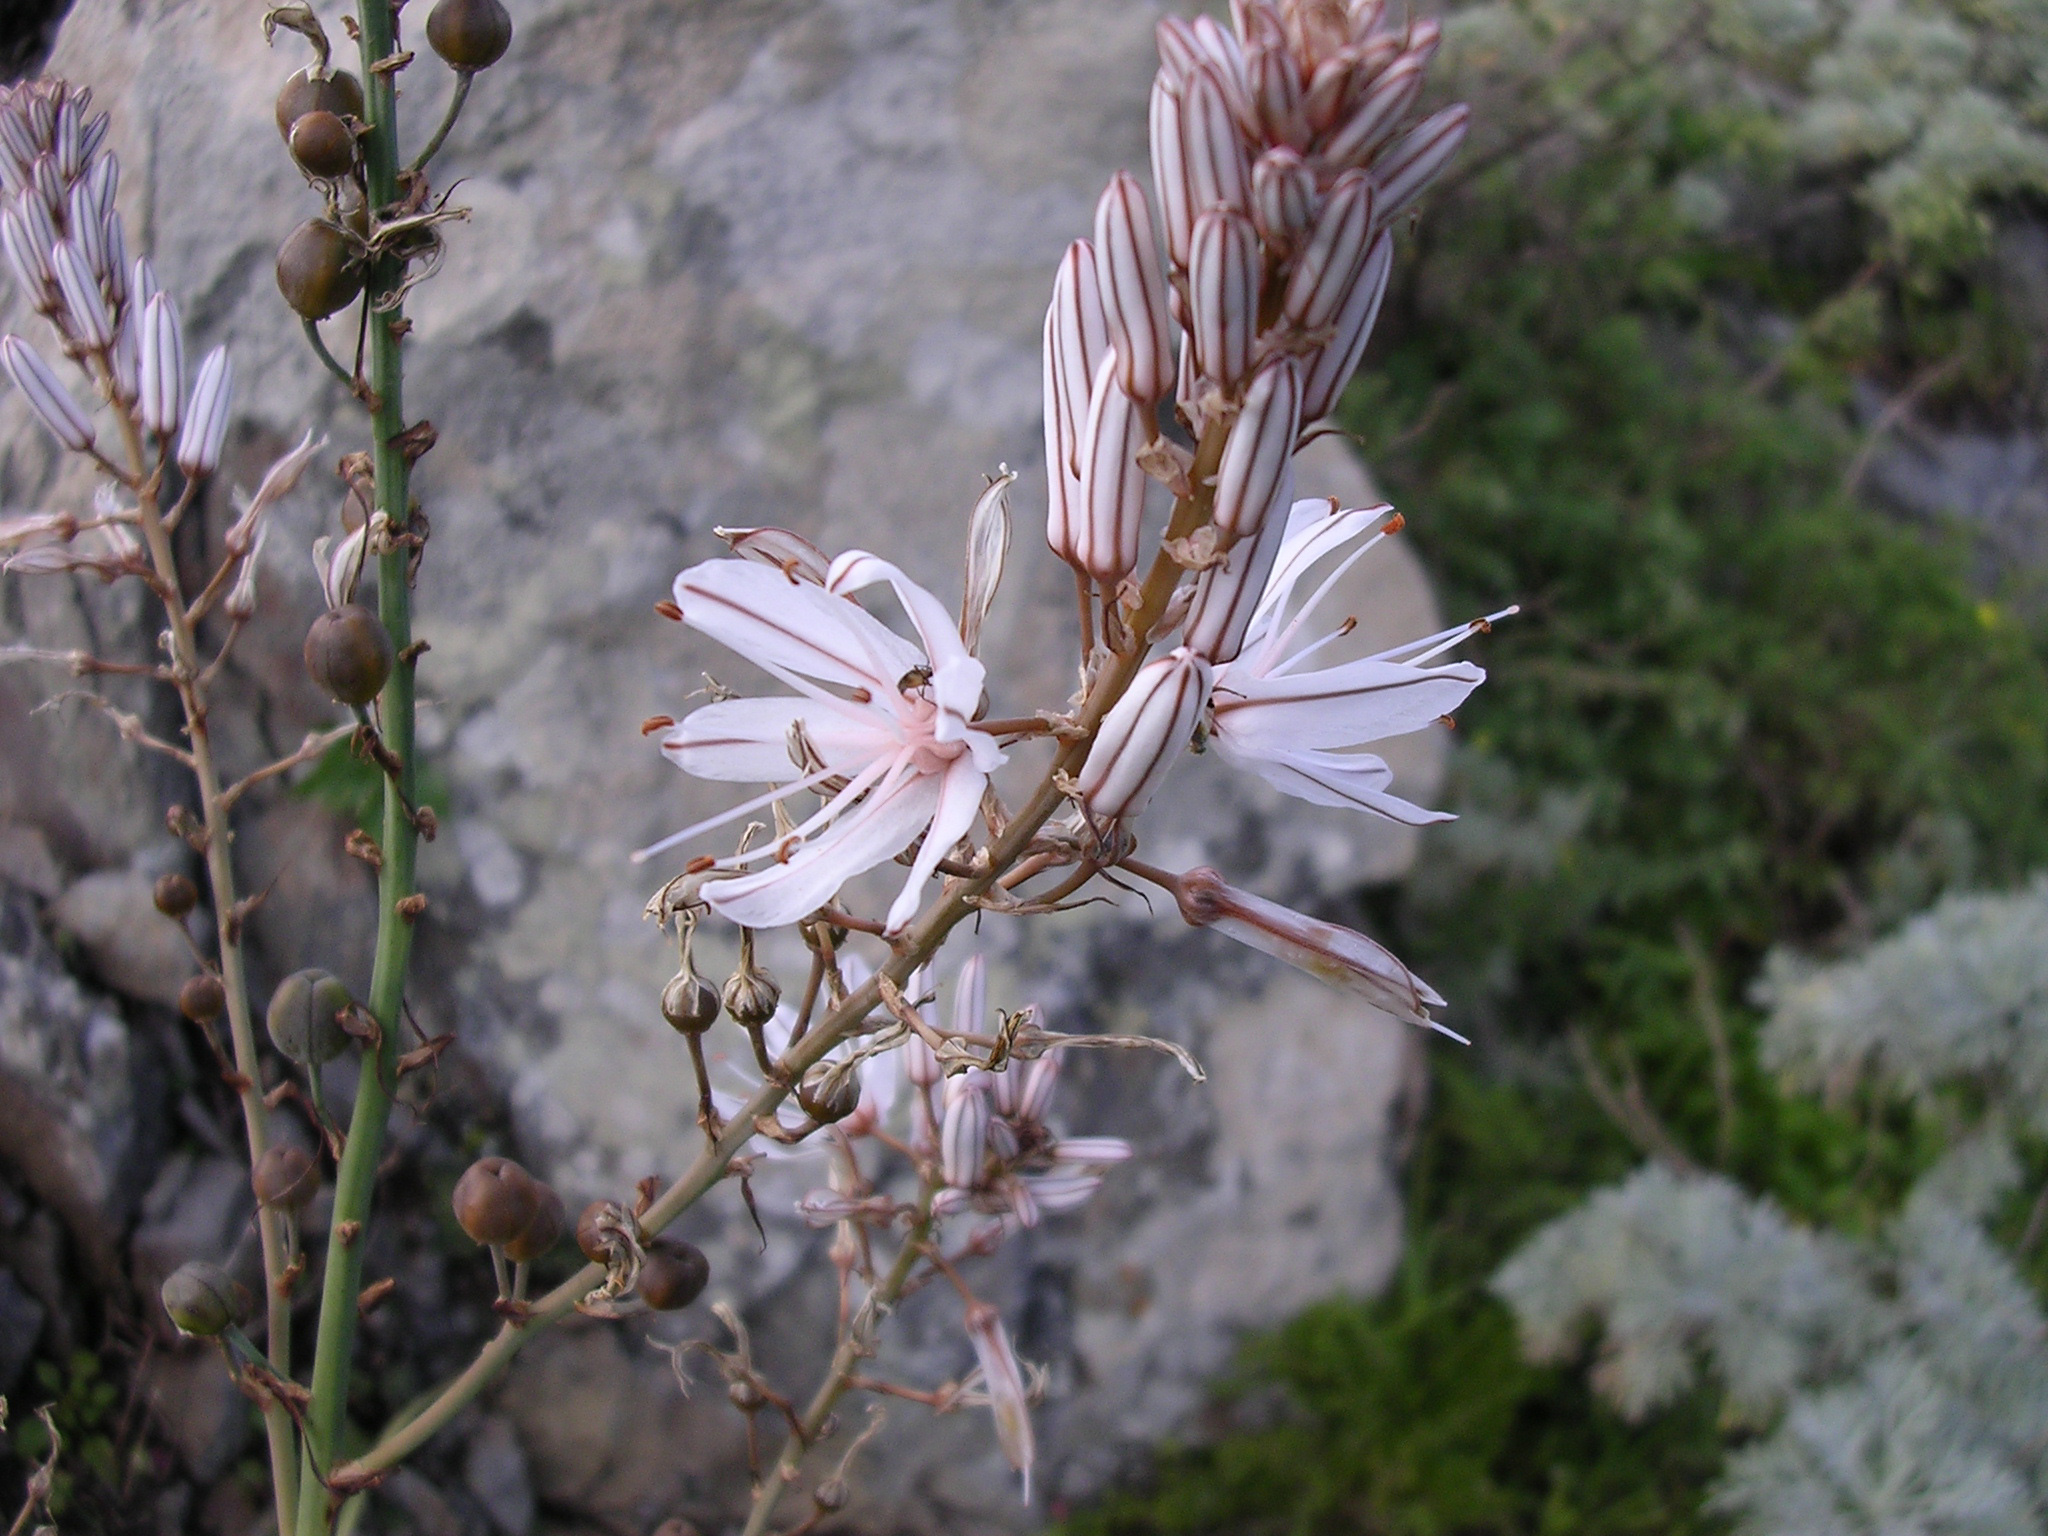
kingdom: Plantae
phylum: Tracheophyta
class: Liliopsida
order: Asparagales
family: Asphodelaceae
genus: Asphodelus
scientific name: Asphodelus ramosus
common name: Silverrod
